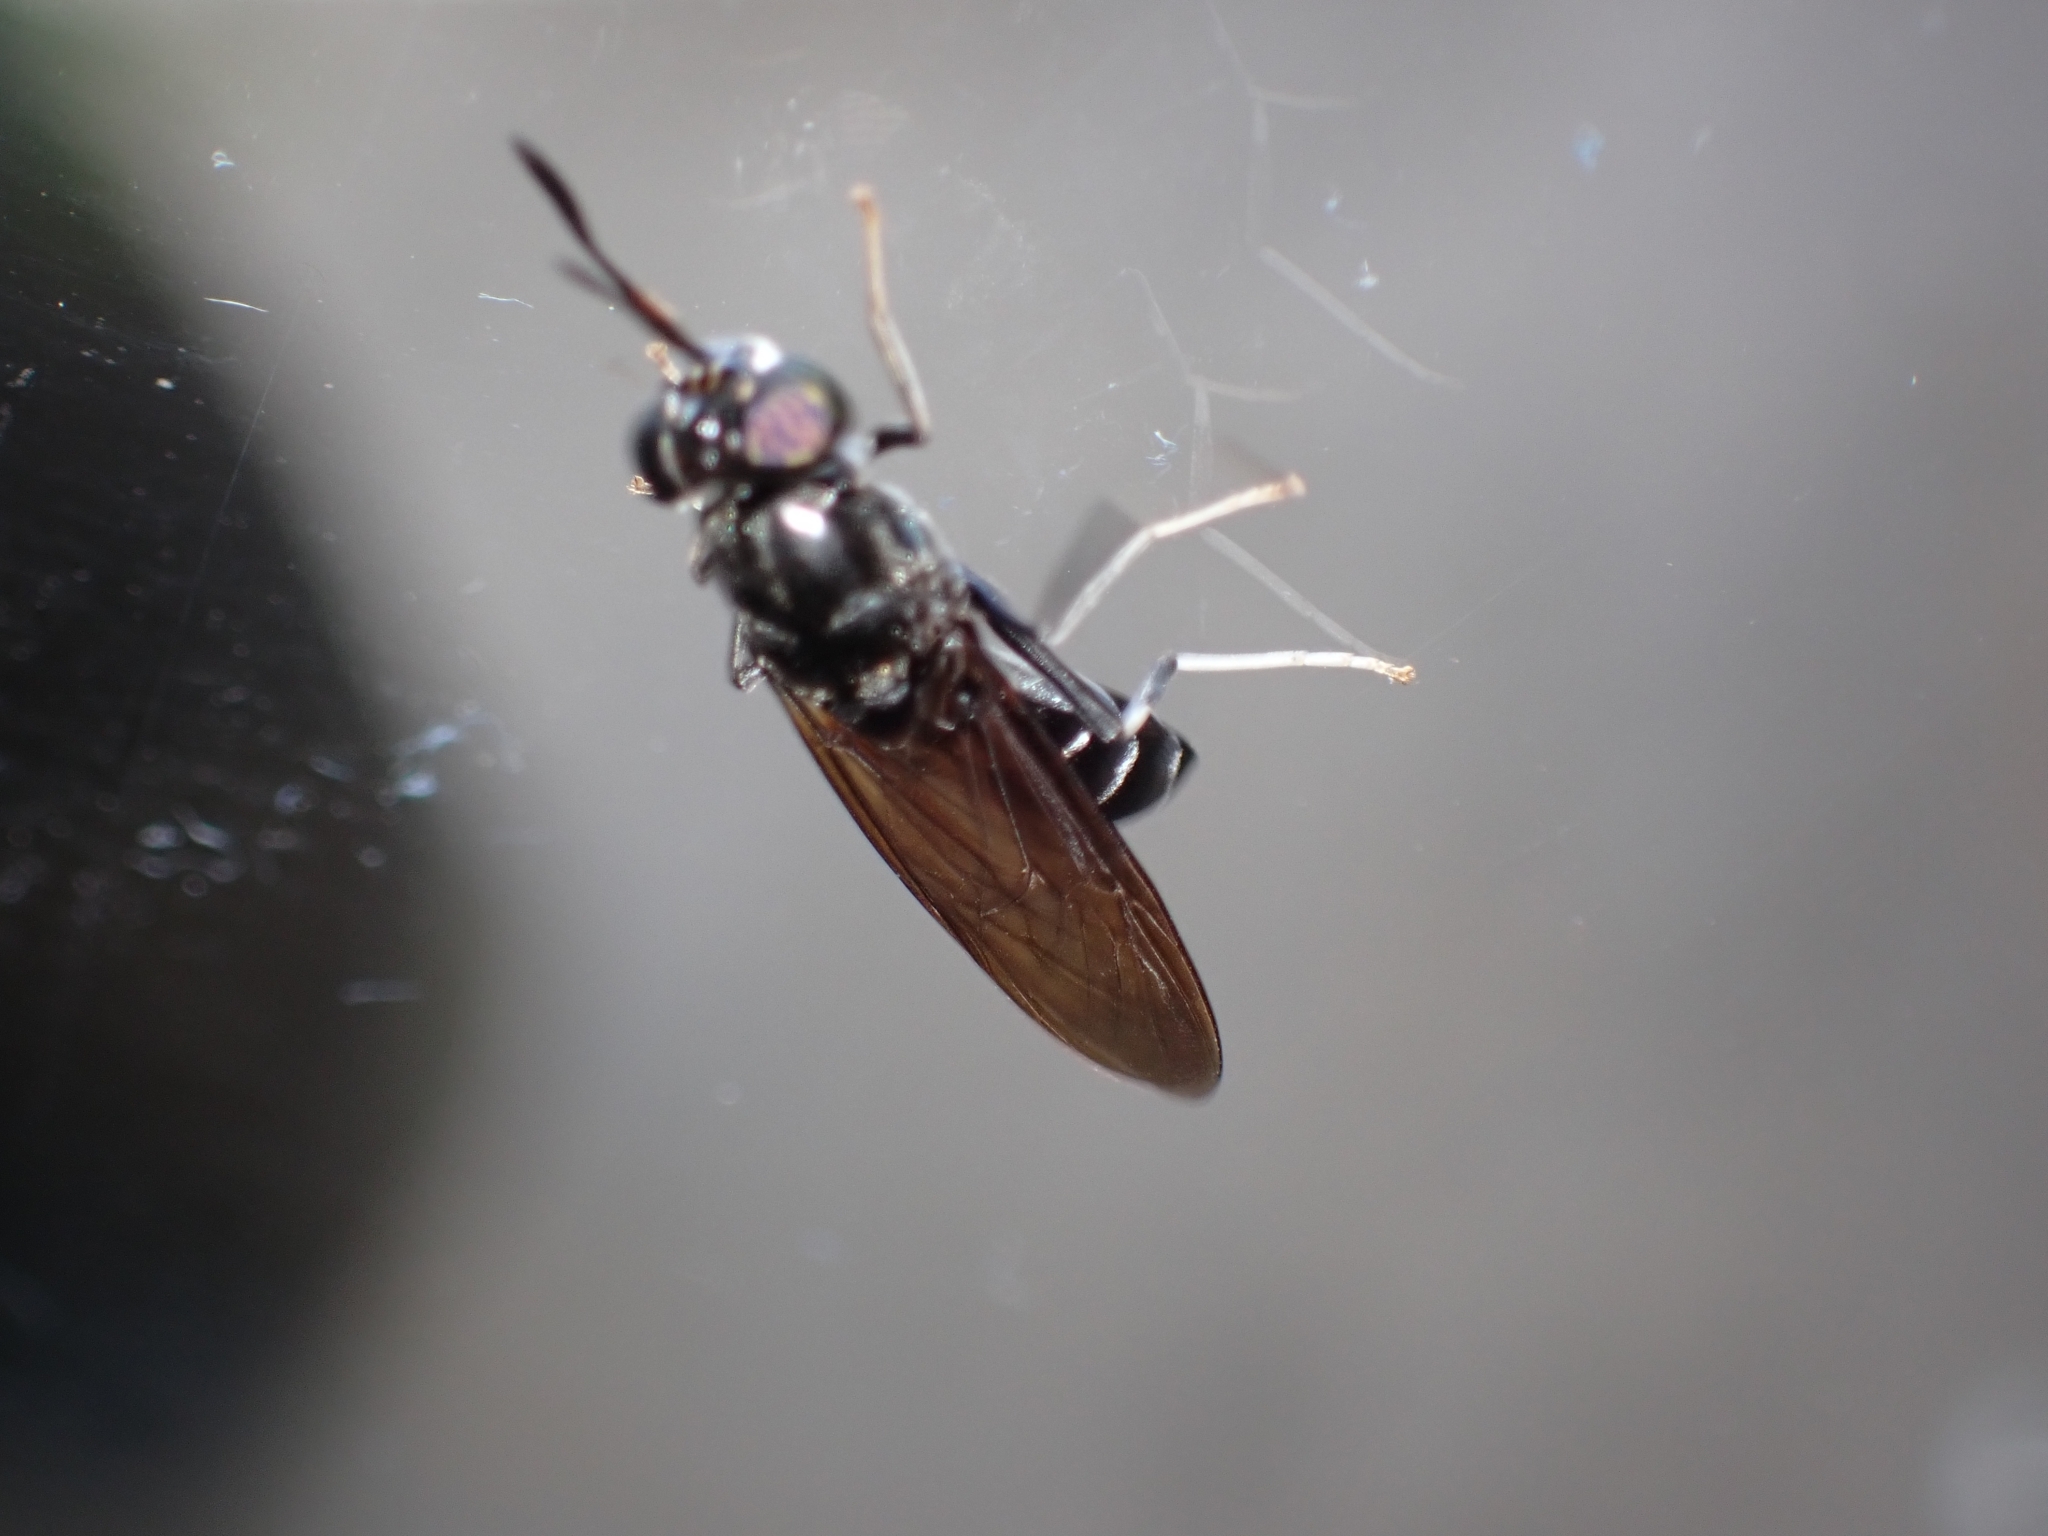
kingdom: Animalia
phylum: Arthropoda
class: Insecta
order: Diptera
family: Stratiomyidae
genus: Hermetia
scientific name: Hermetia illucens
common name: Black soldier fly
